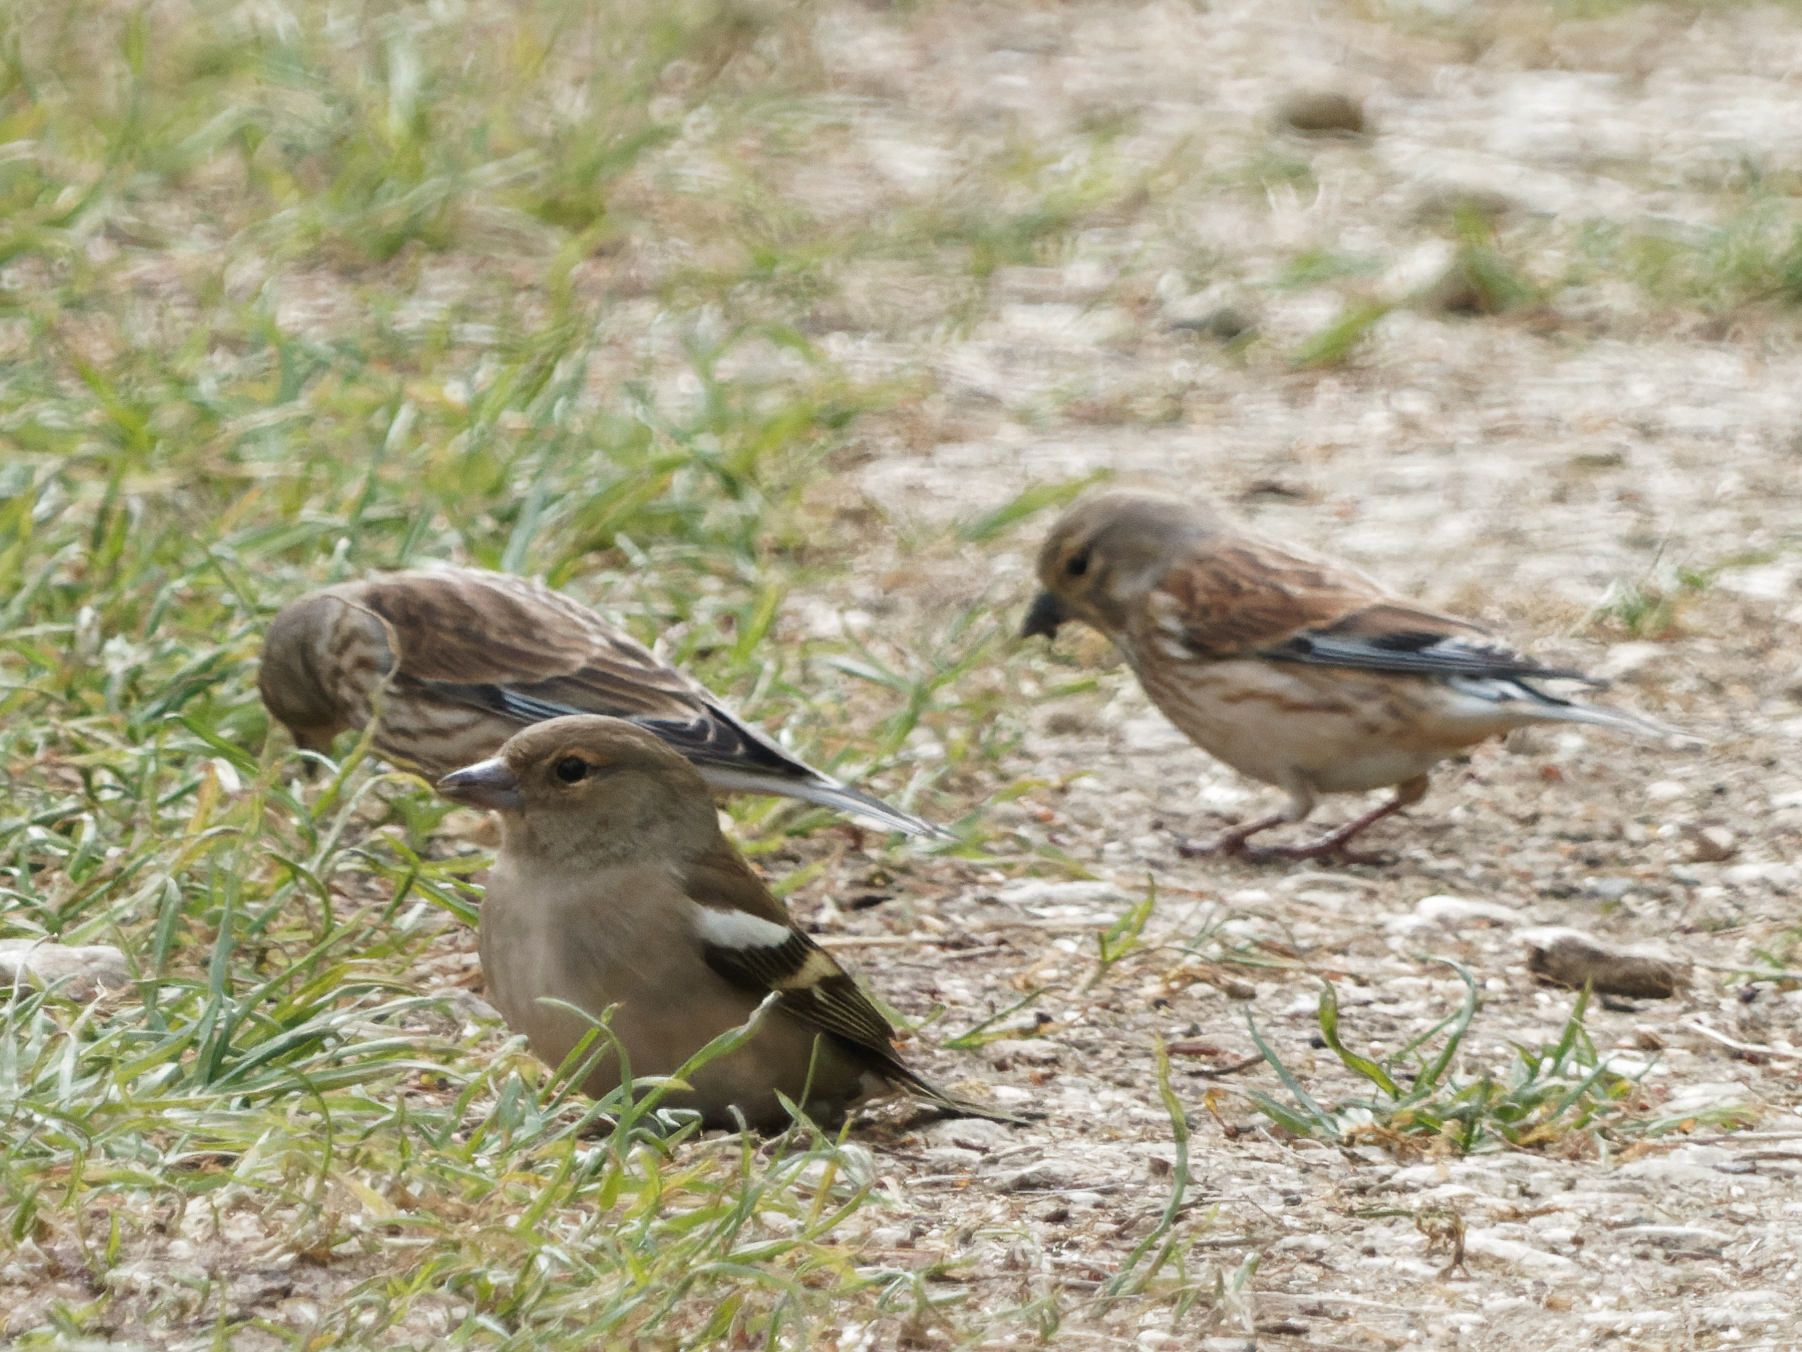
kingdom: Animalia
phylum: Chordata
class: Aves
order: Passeriformes
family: Fringillidae
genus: Fringilla
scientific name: Fringilla coelebs
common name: Common chaffinch
